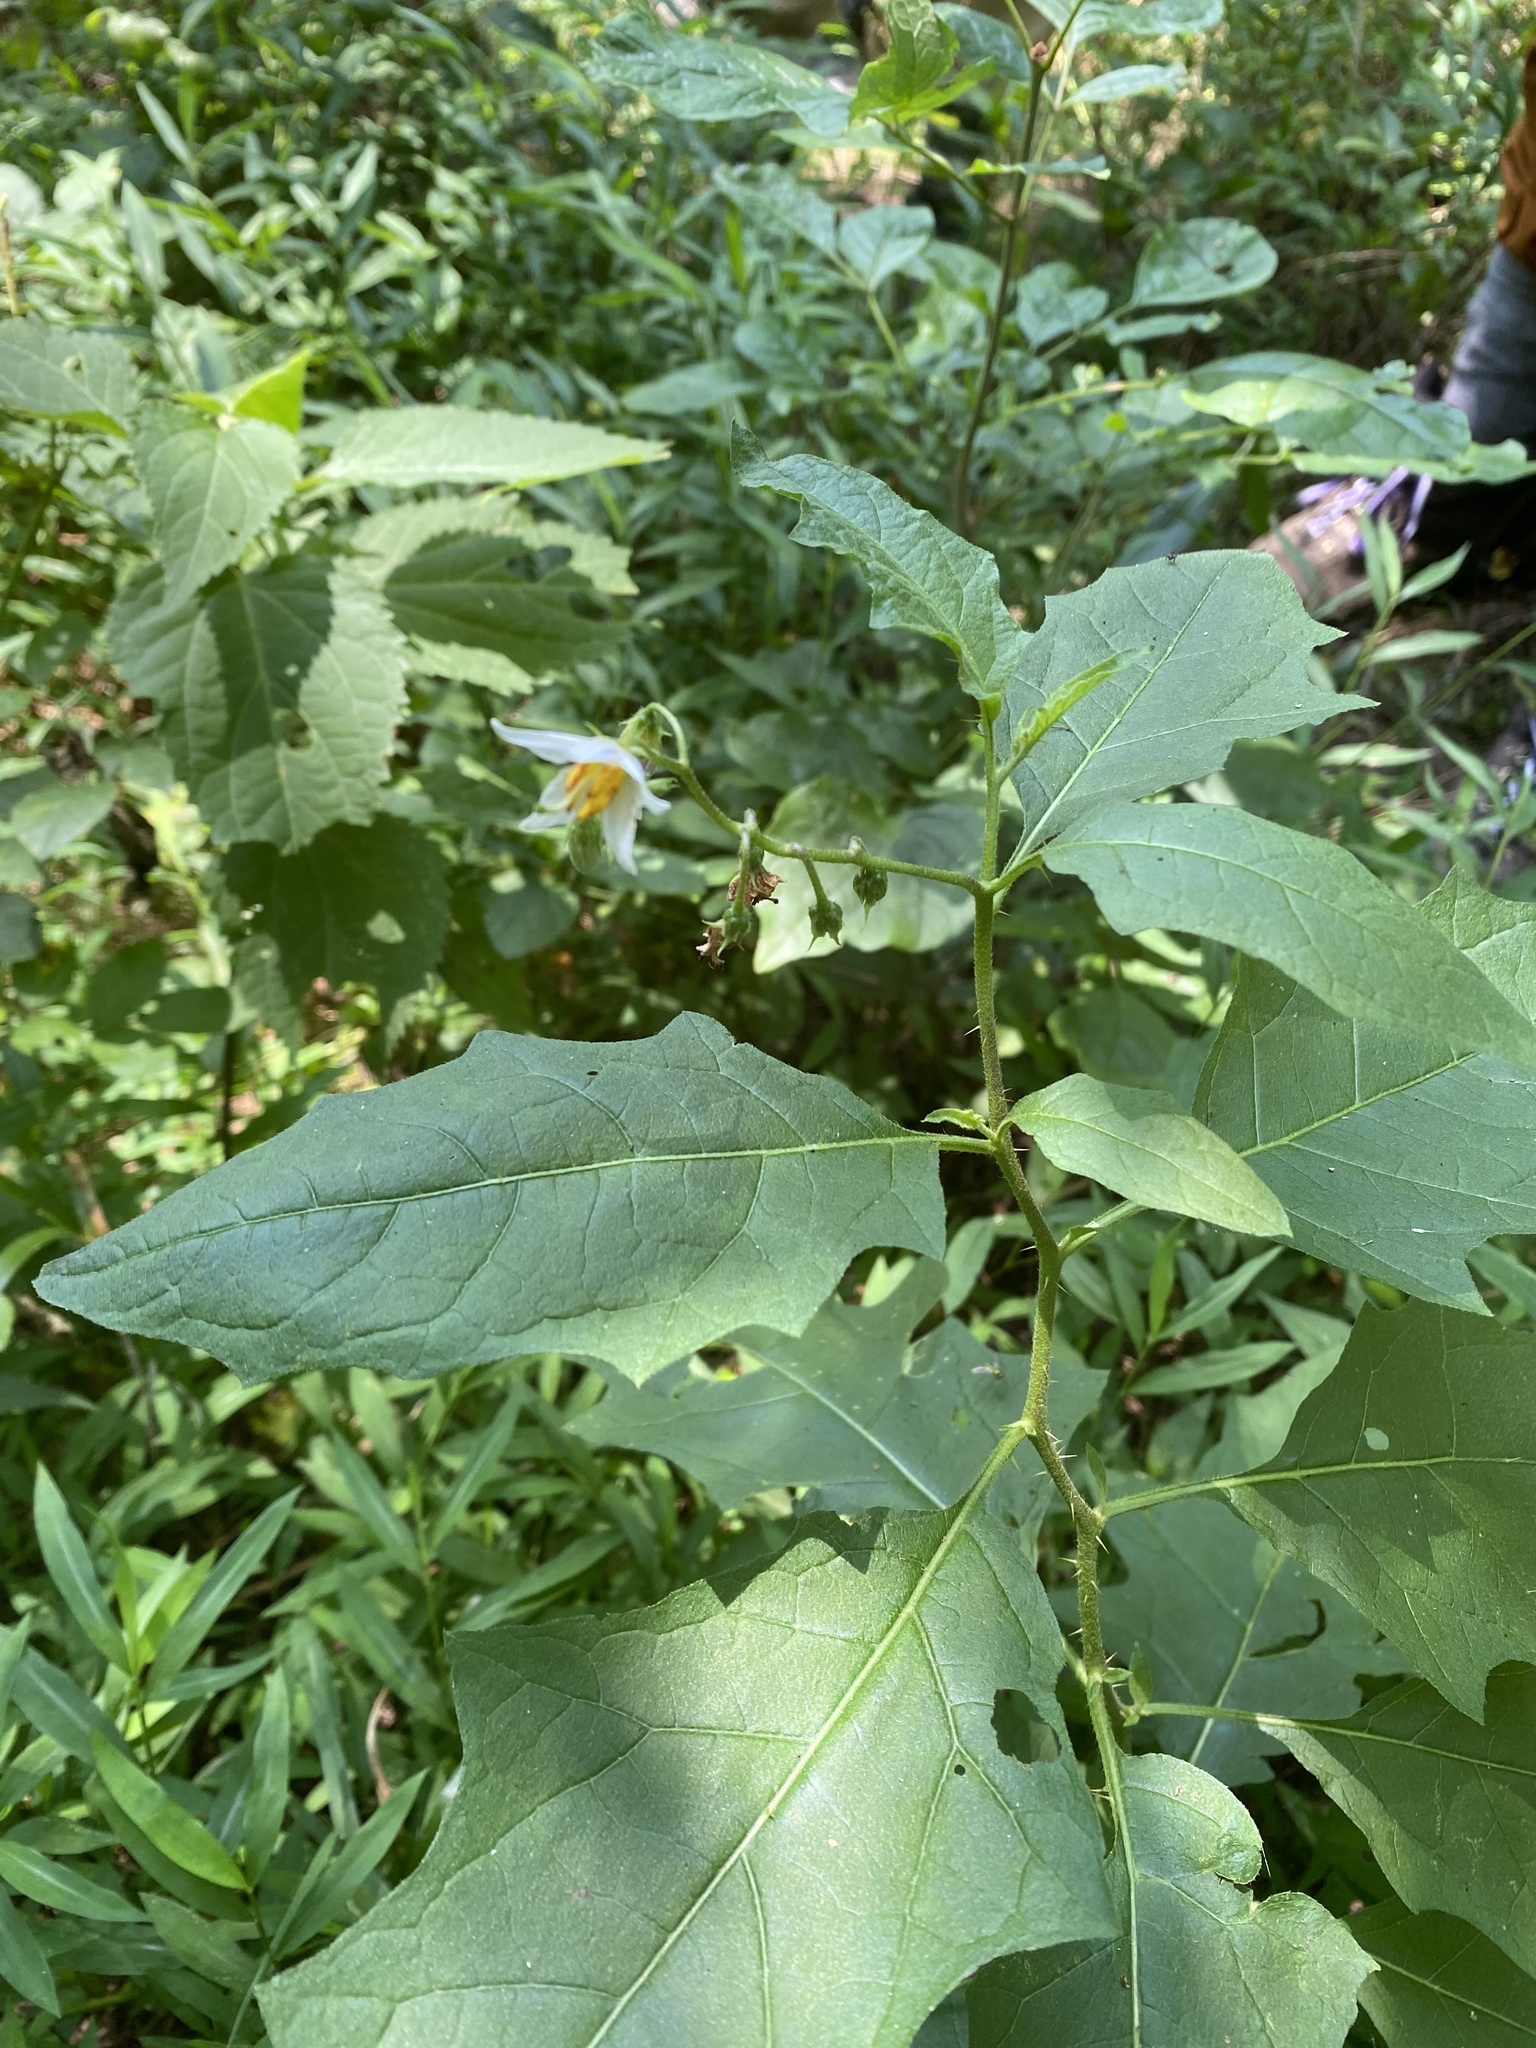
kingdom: Plantae
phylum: Tracheophyta
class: Magnoliopsida
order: Solanales
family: Solanaceae
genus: Solanum
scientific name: Solanum carolinense
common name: Horse-nettle
